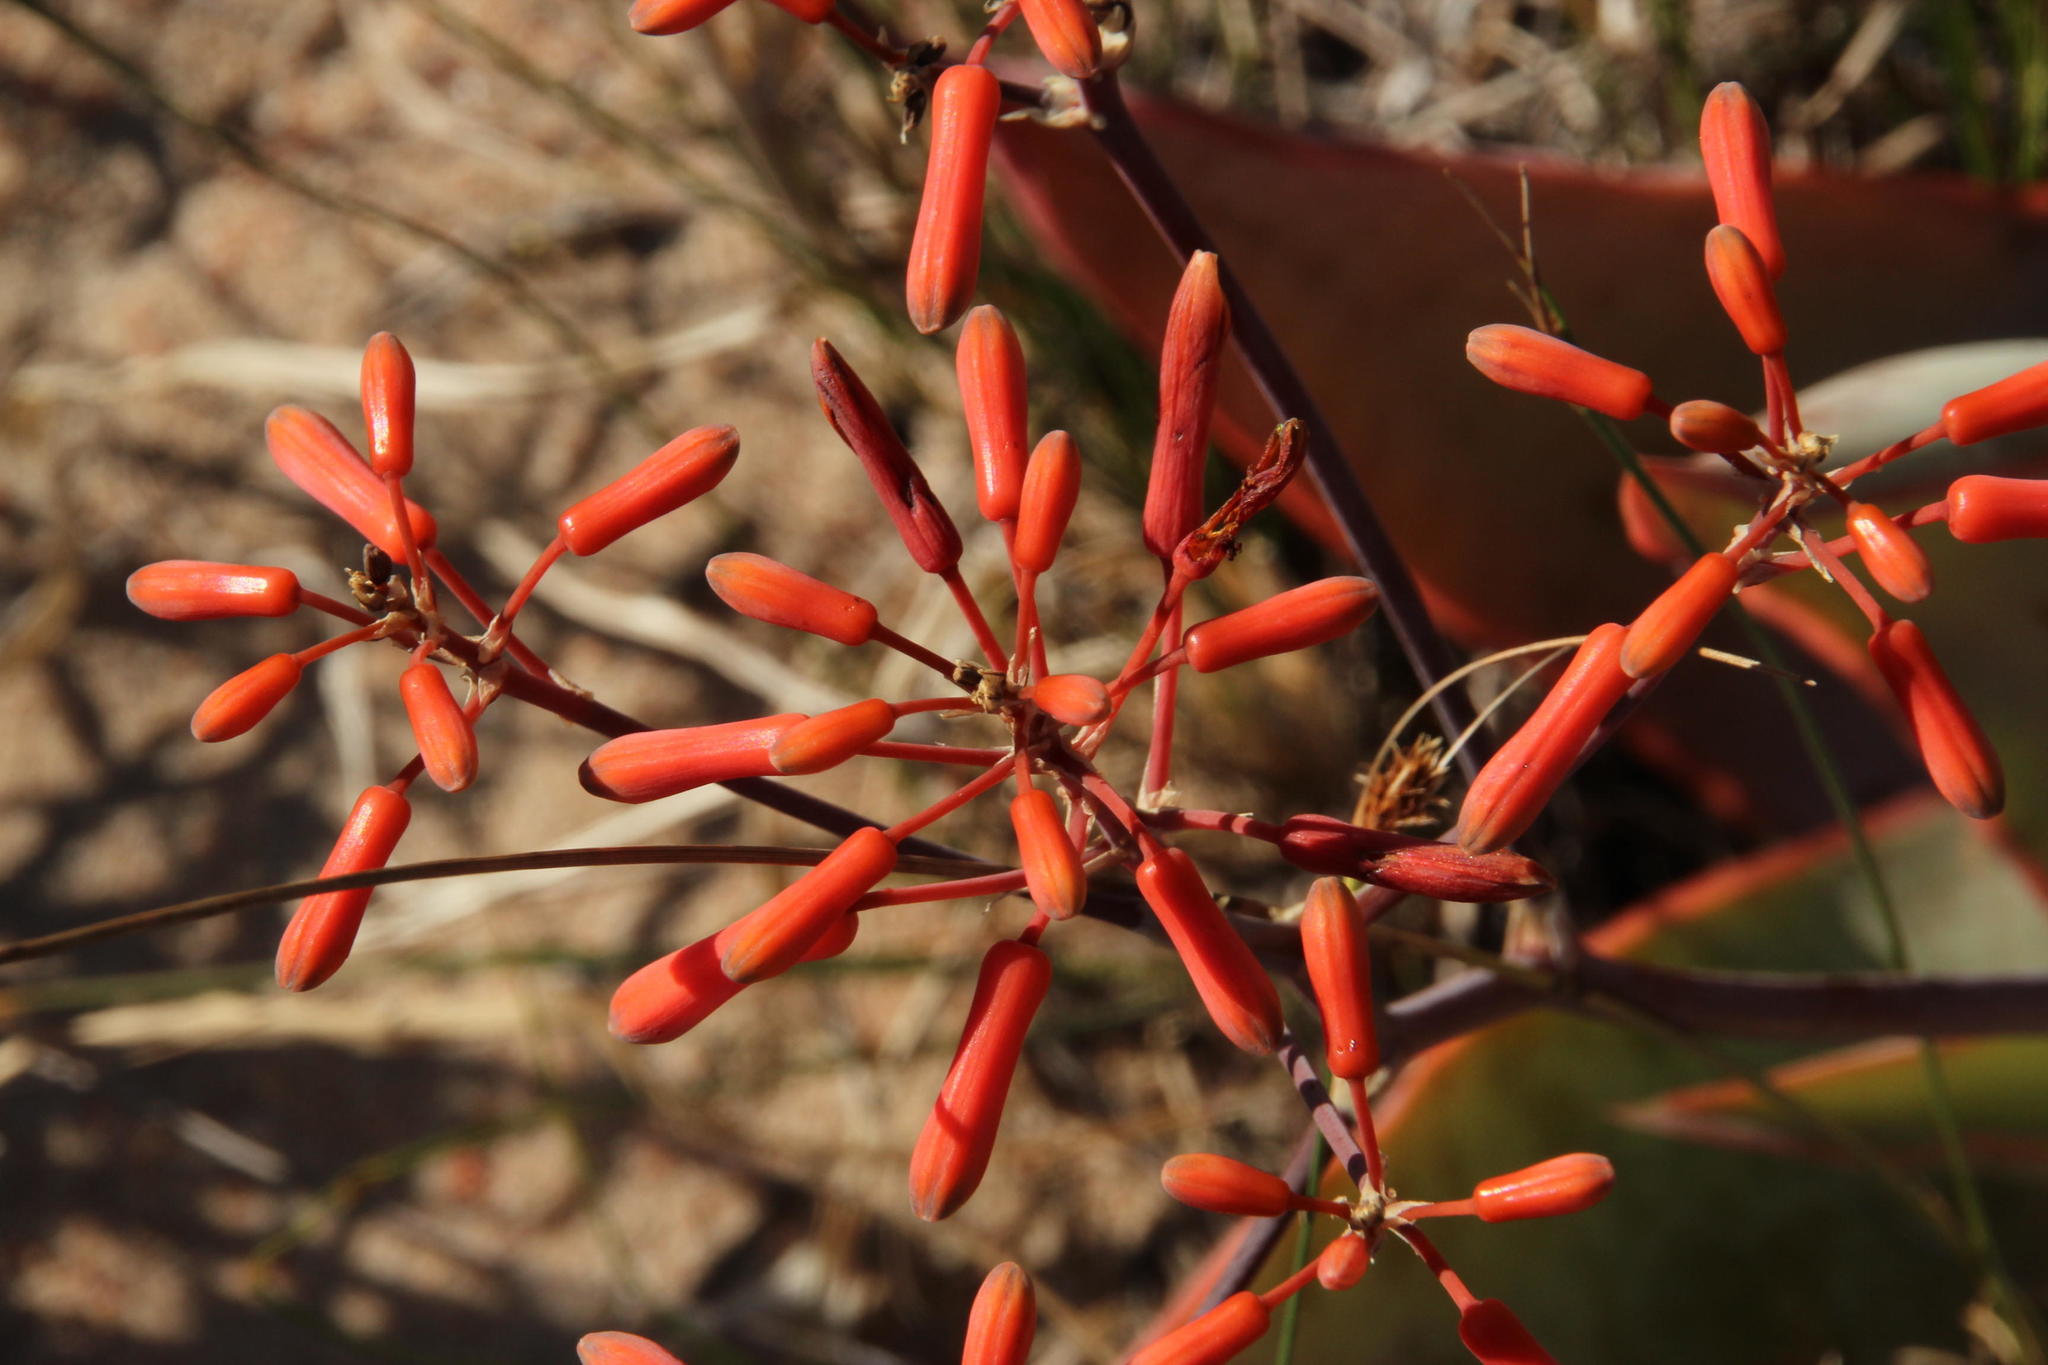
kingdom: Plantae
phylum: Tracheophyta
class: Liliopsida
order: Asparagales
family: Asphodelaceae
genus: Aloe
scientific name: Aloe striata
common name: Coral aloe
